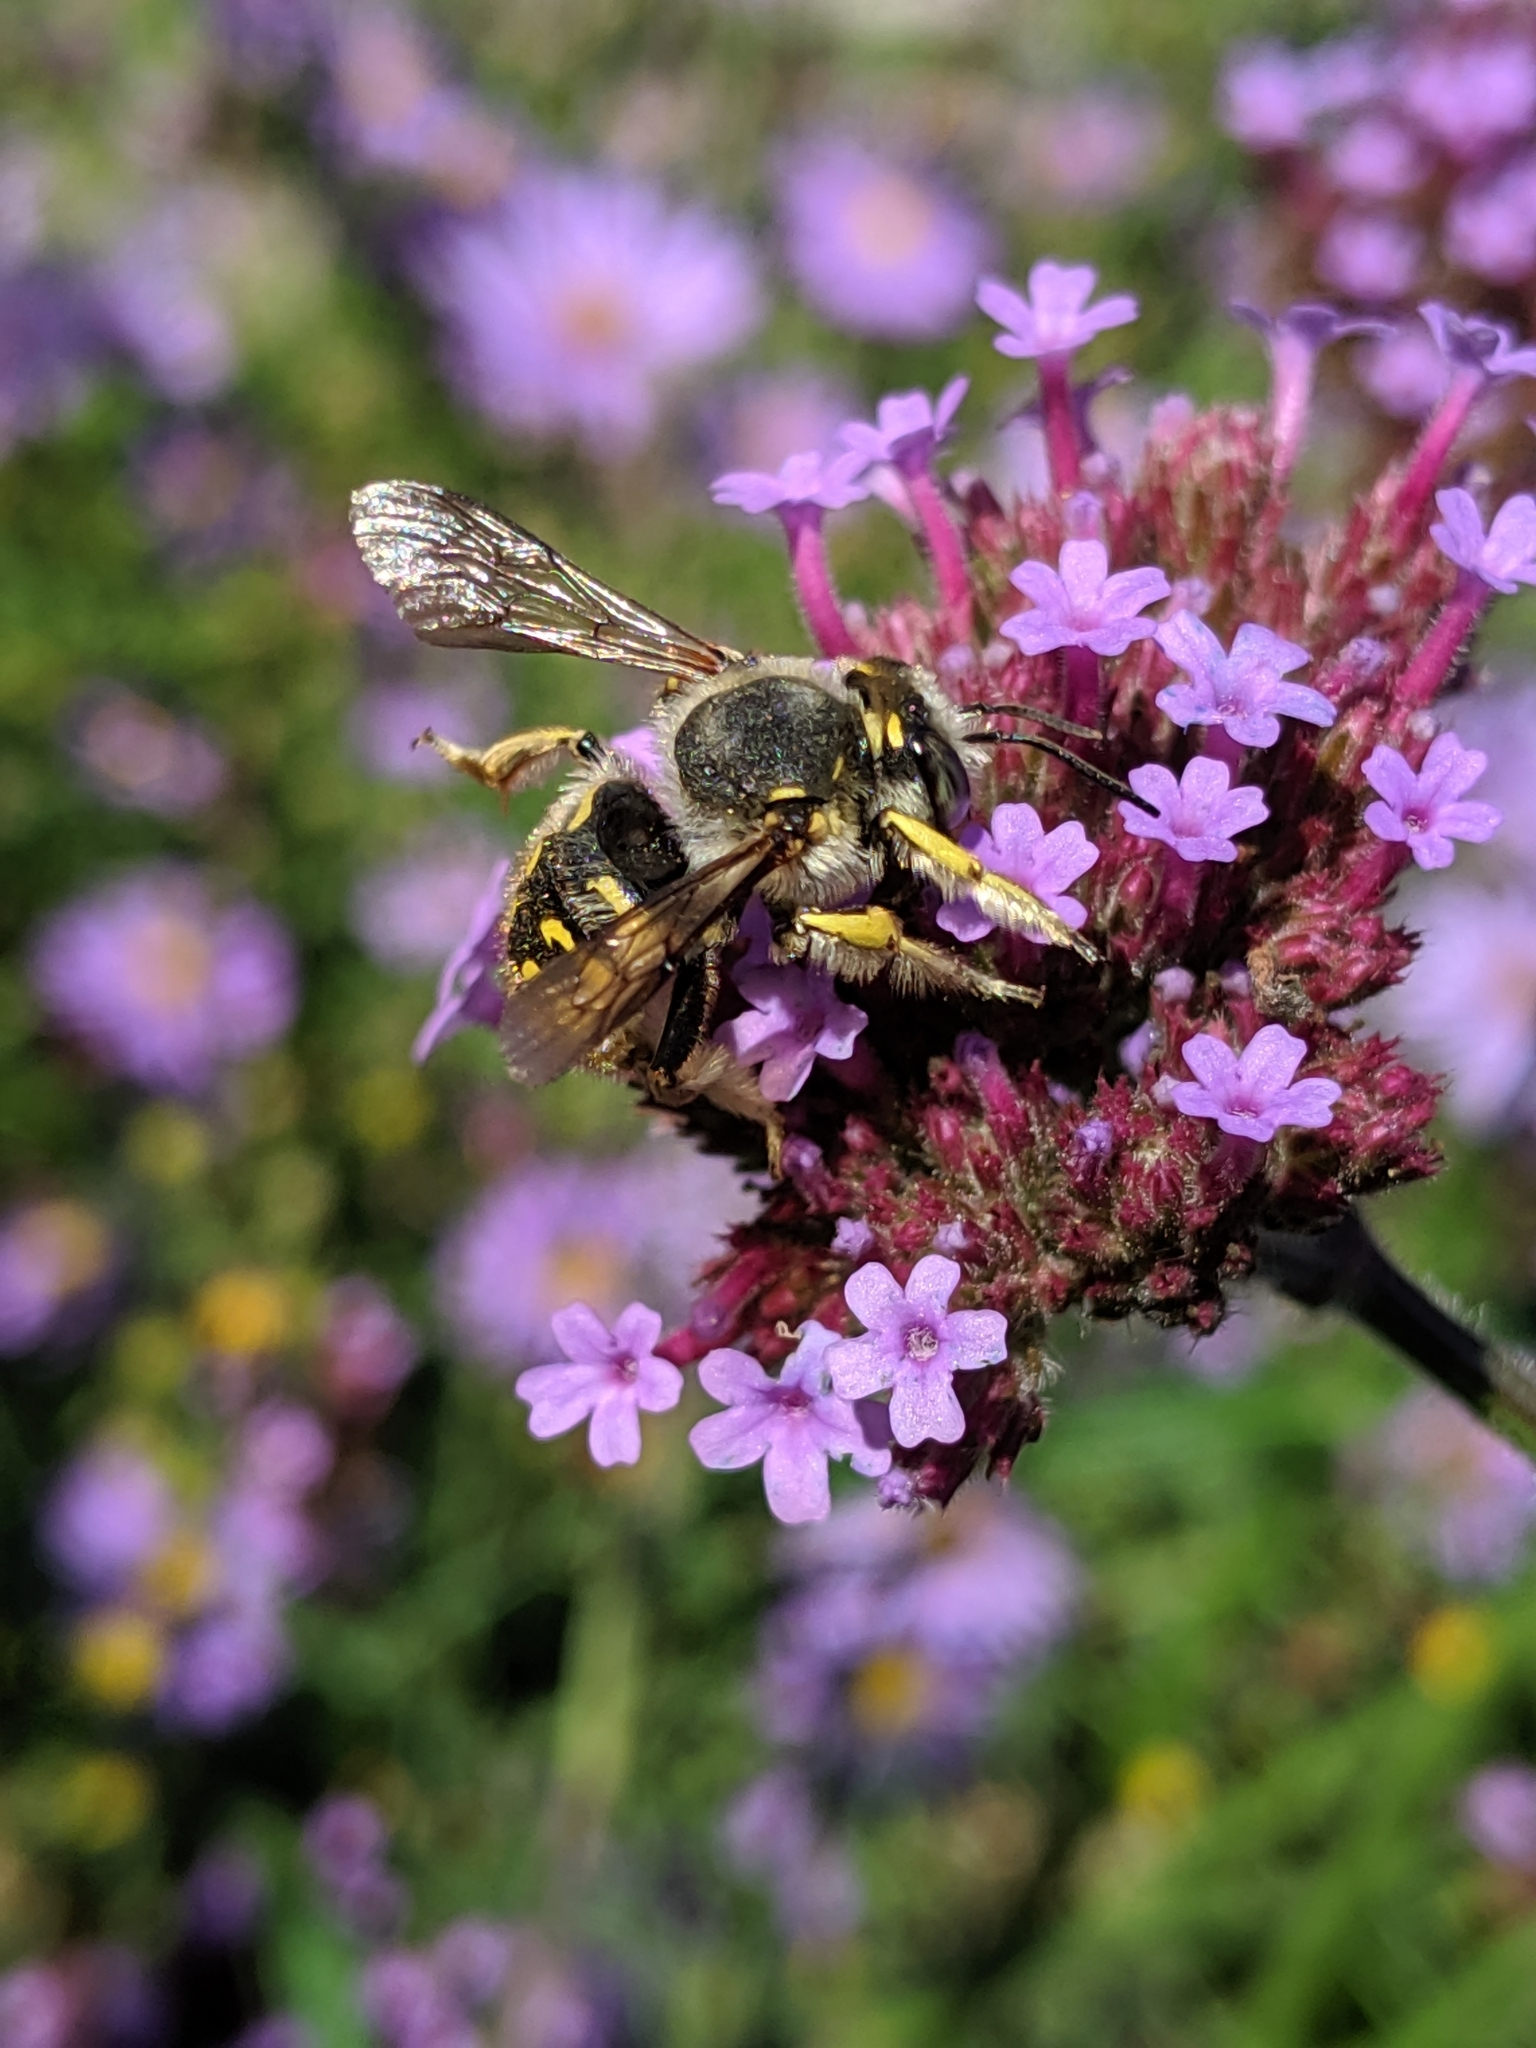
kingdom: Animalia
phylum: Arthropoda
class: Insecta
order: Hymenoptera
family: Megachilidae
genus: Anthidium
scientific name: Anthidium manicatum
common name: Wool carder bee
